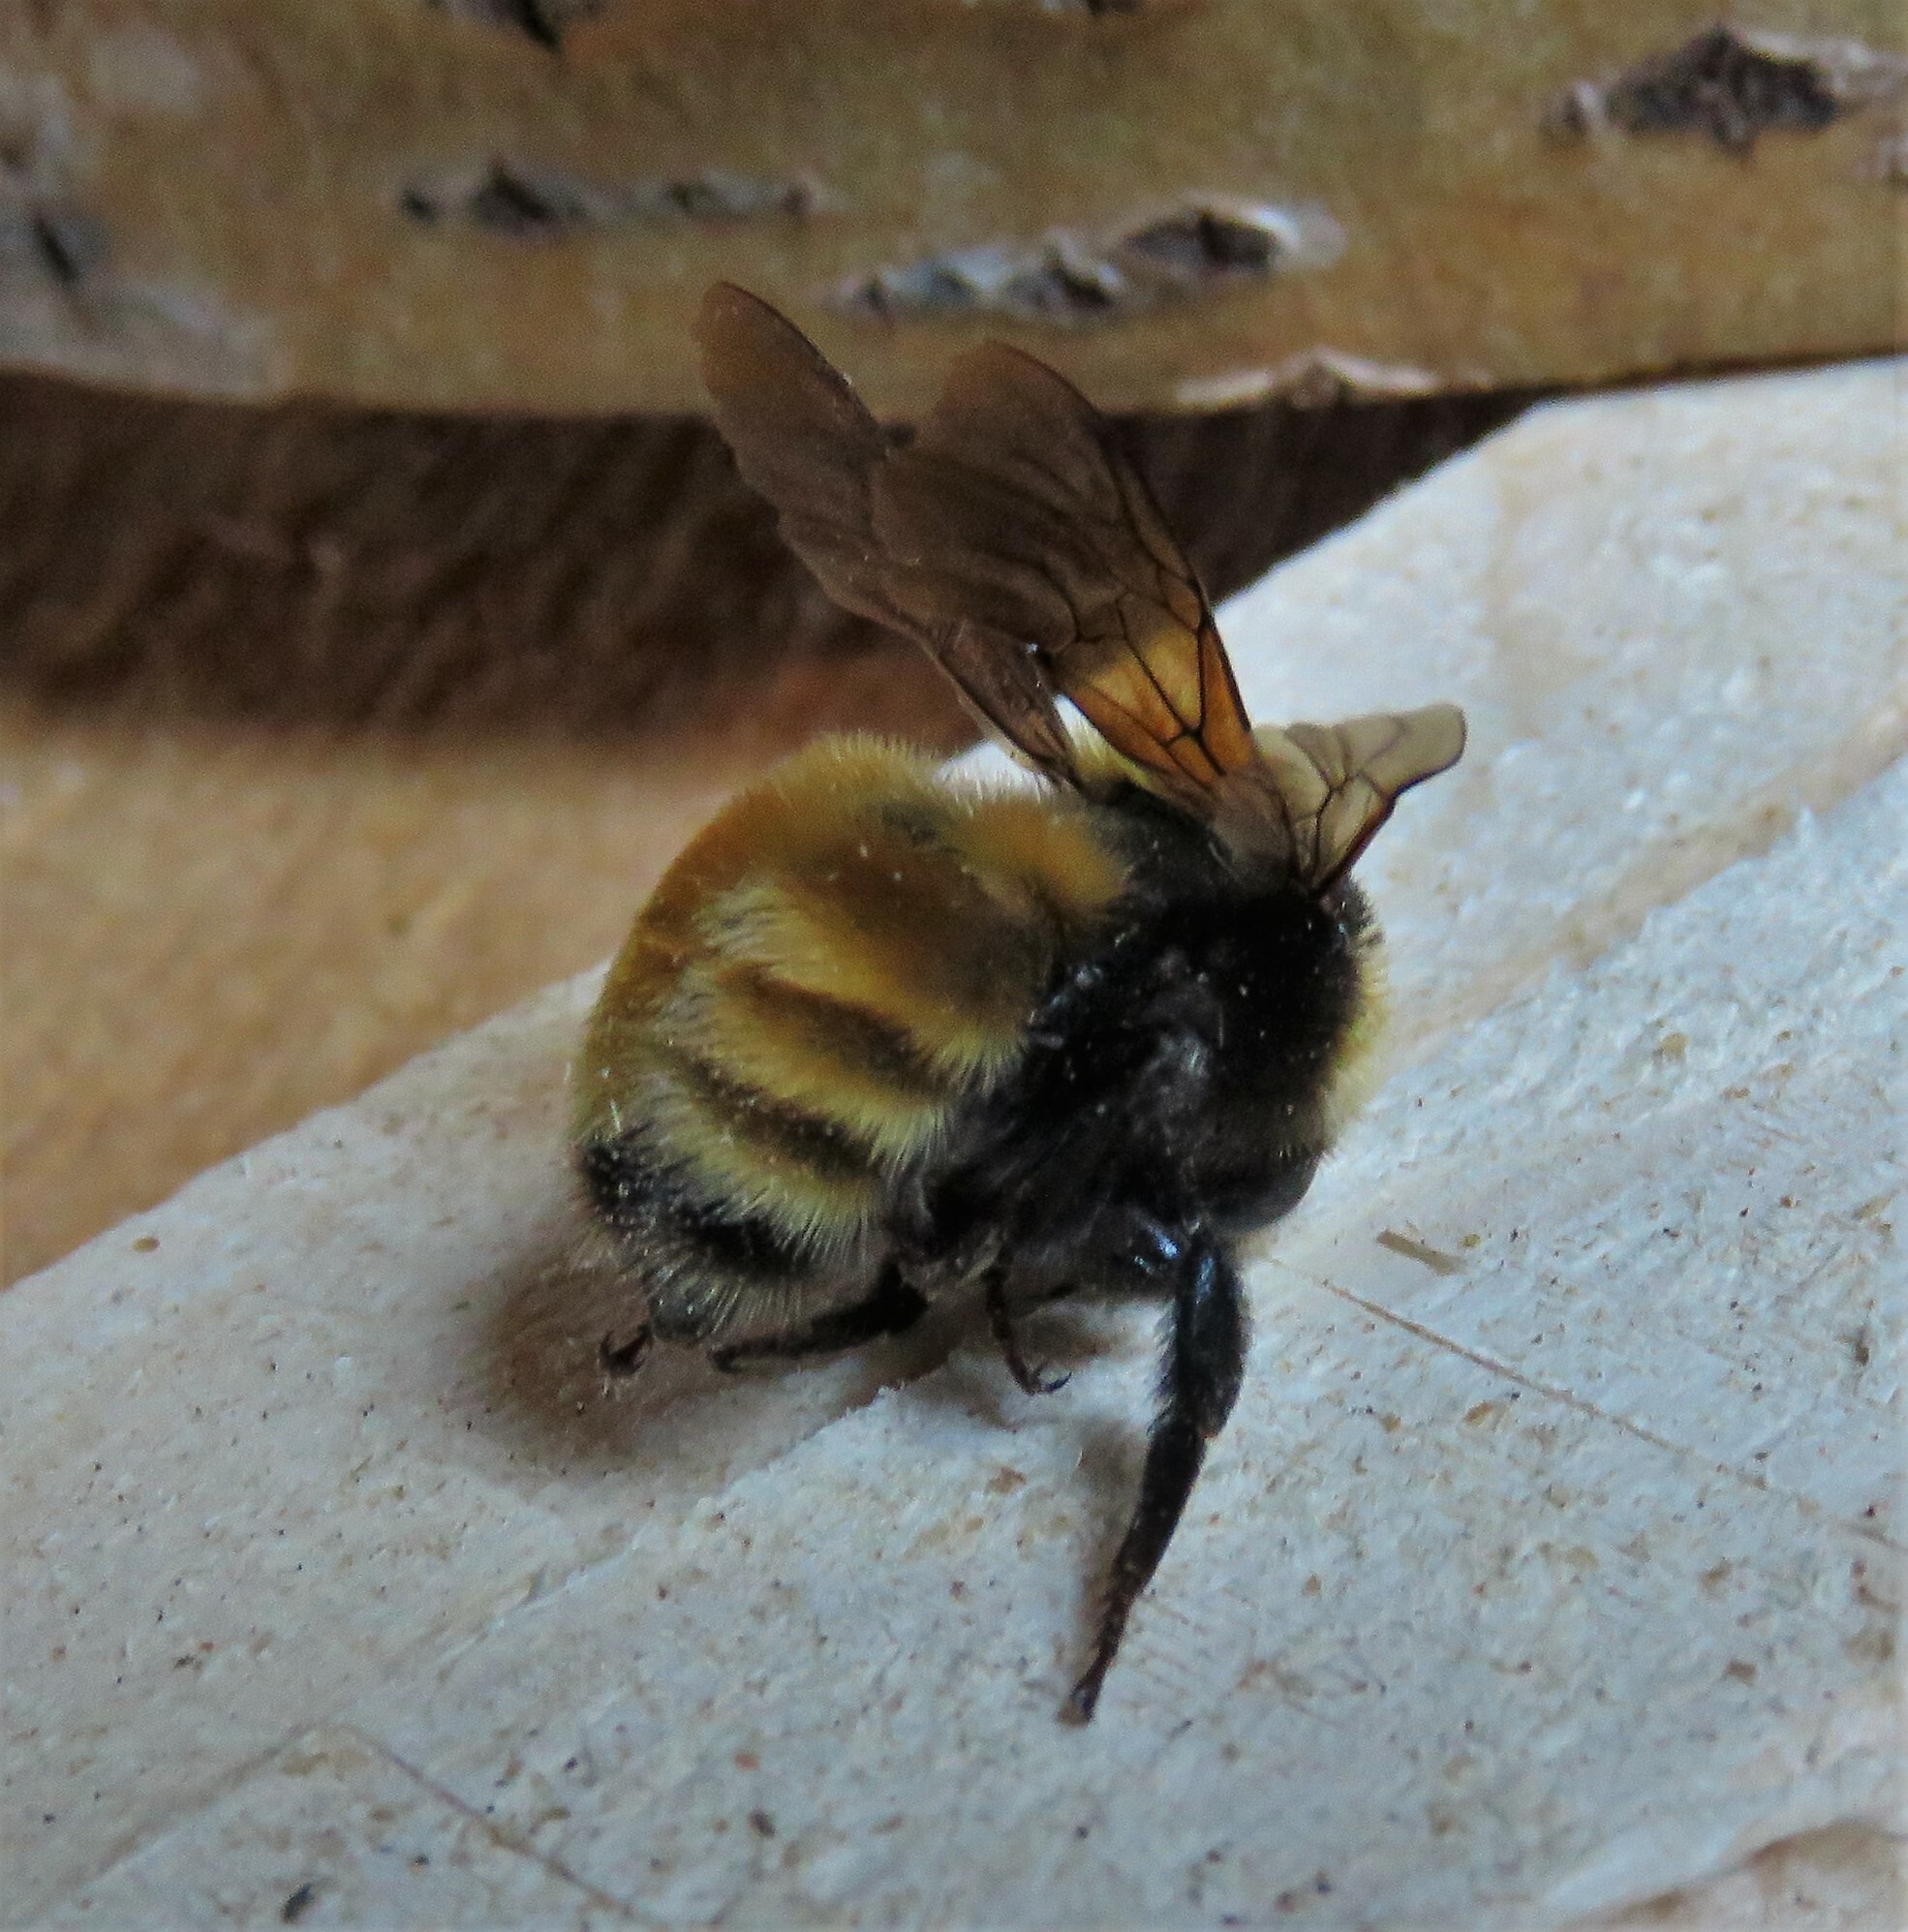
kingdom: Animalia
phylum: Arthropoda
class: Insecta
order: Hymenoptera
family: Apidae
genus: Bombus
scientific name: Bombus borealis
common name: Northern amber bumble bee
